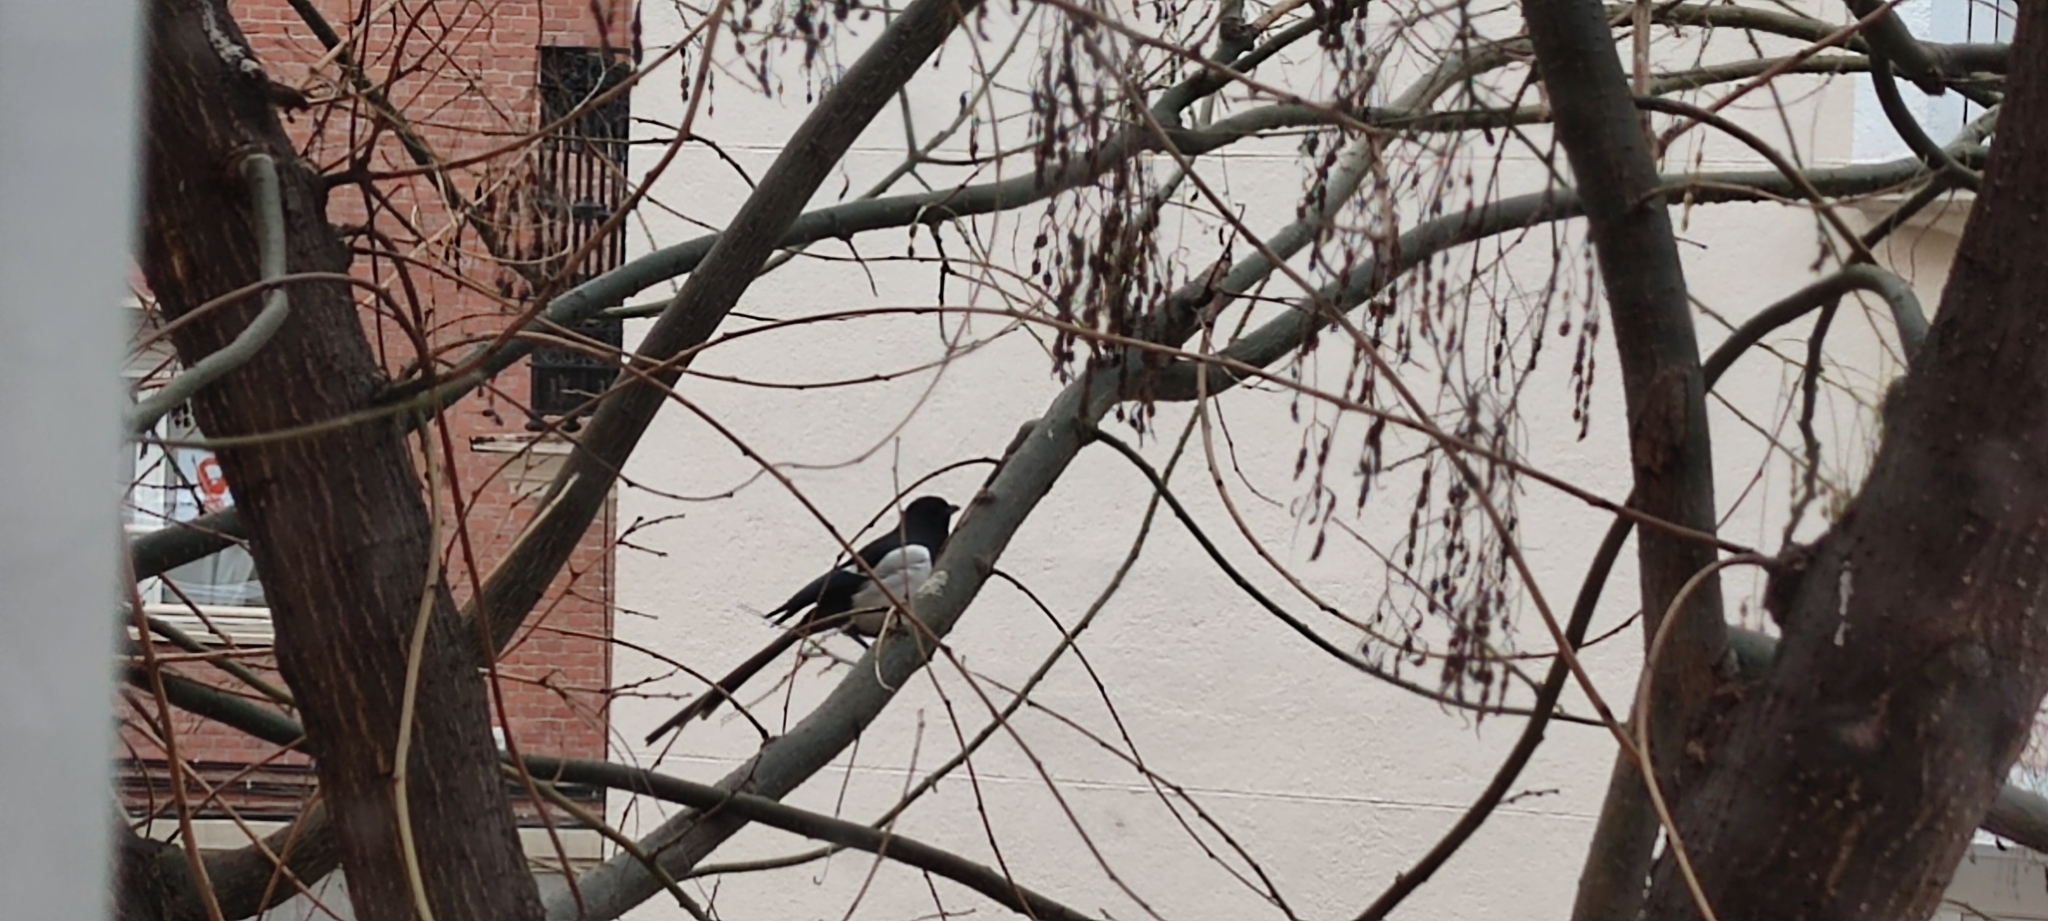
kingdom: Animalia
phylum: Chordata
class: Aves
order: Passeriformes
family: Corvidae
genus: Pica
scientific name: Pica pica
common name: Eurasian magpie
